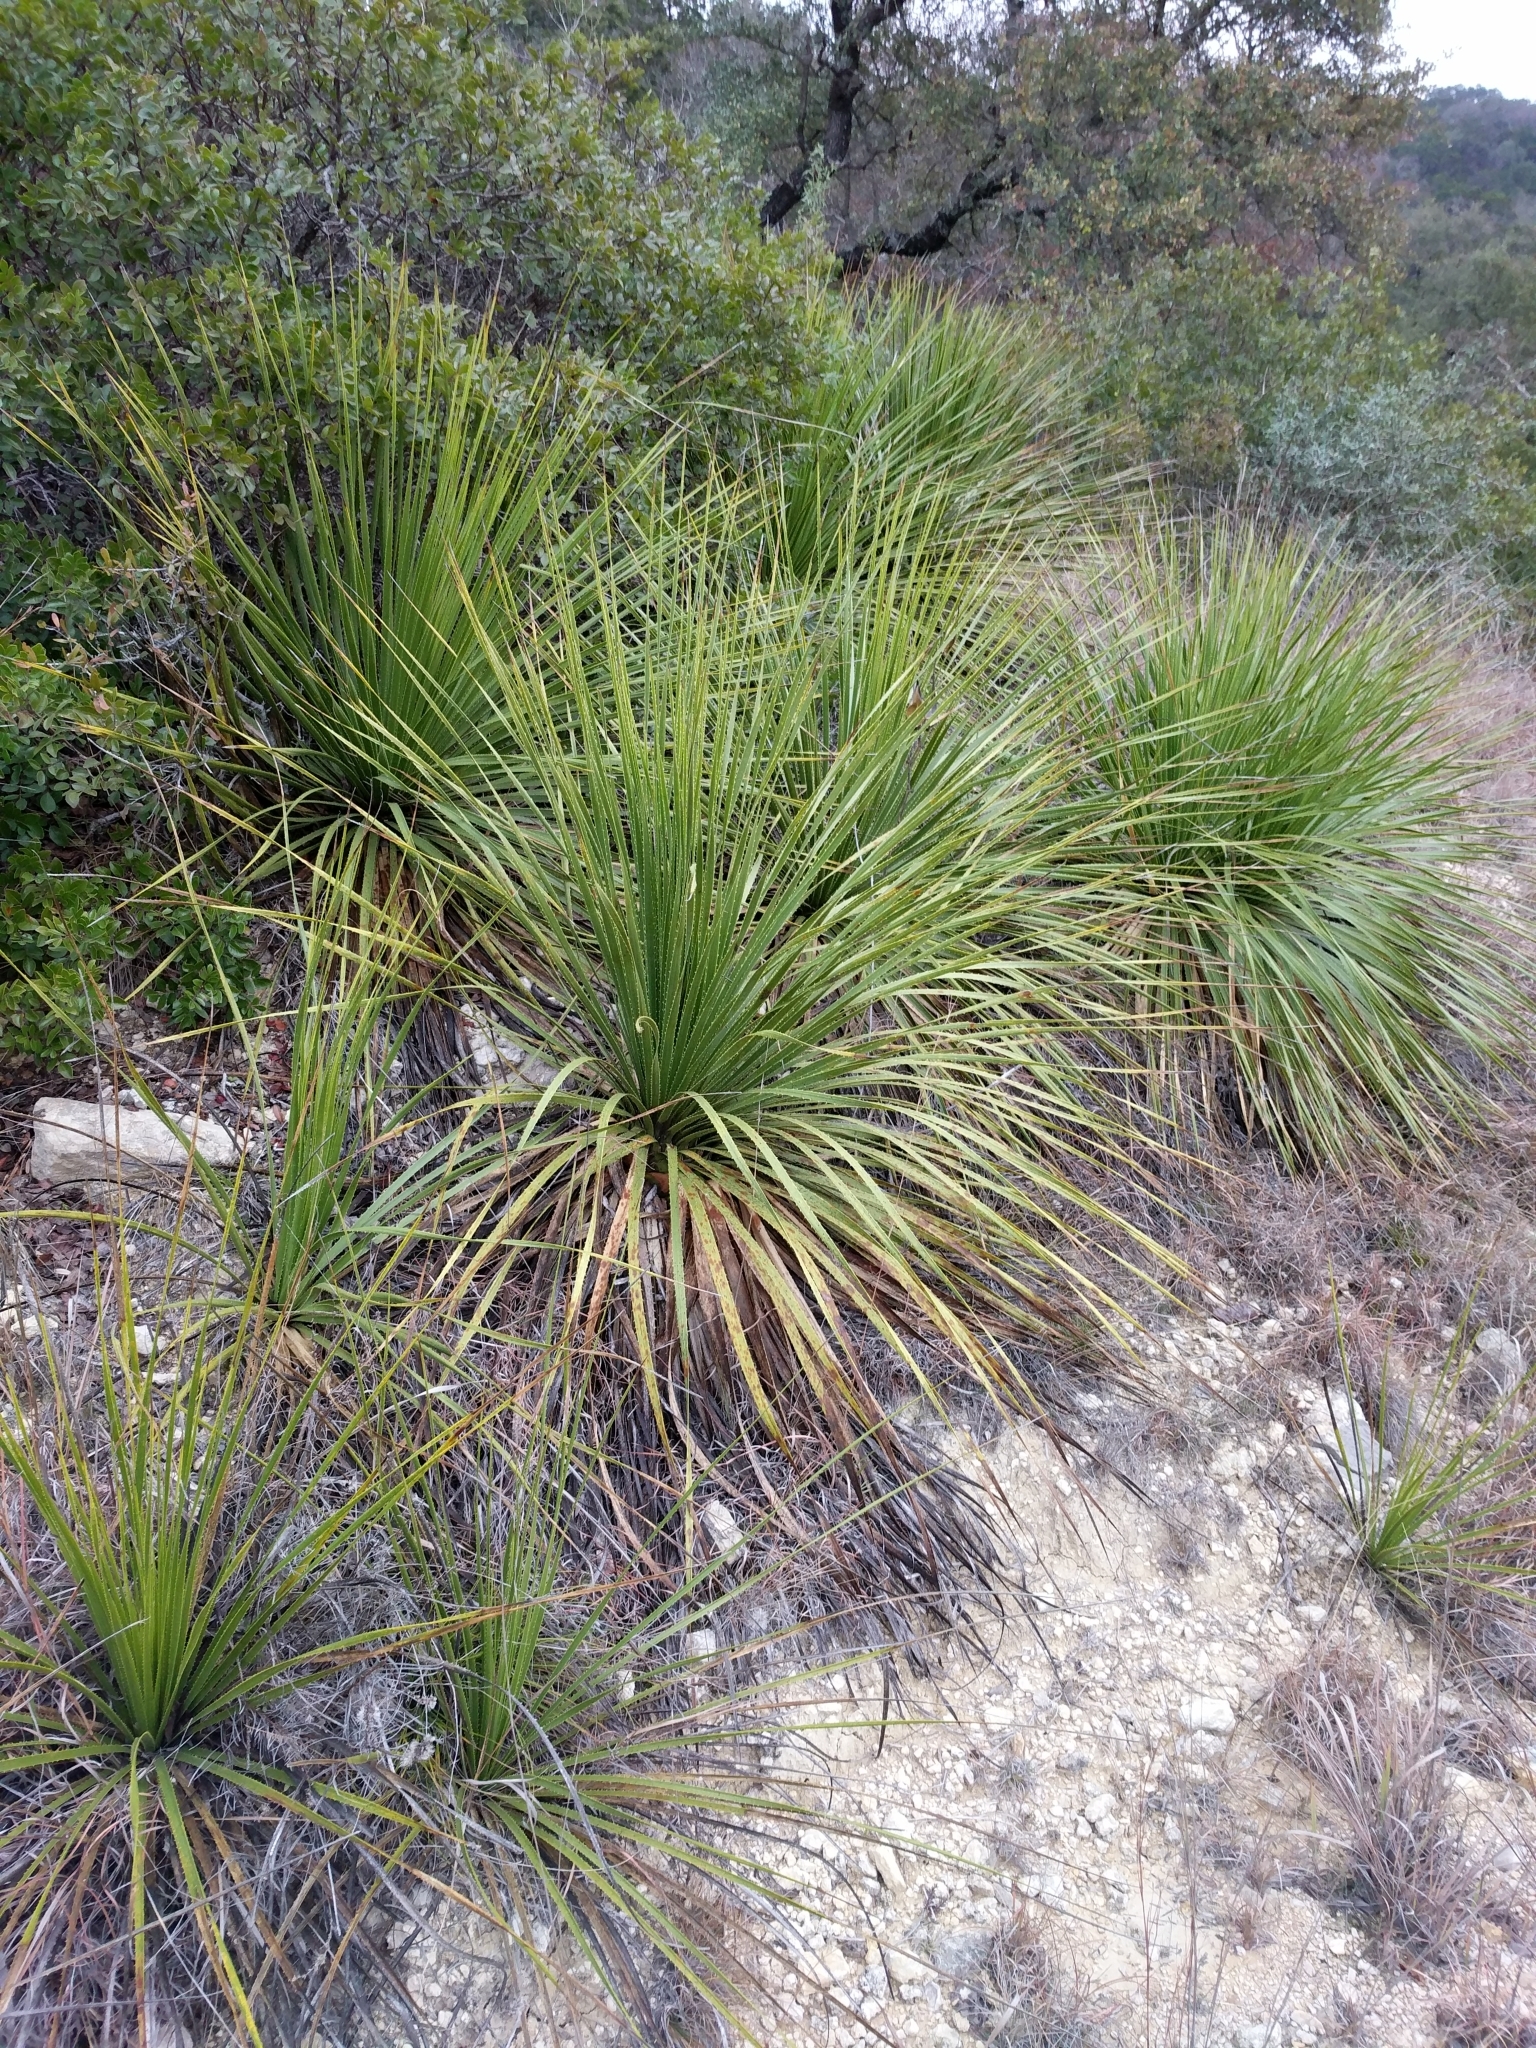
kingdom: Plantae
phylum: Tracheophyta
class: Liliopsida
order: Asparagales
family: Asparagaceae
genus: Dasylirion
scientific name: Dasylirion texanum
